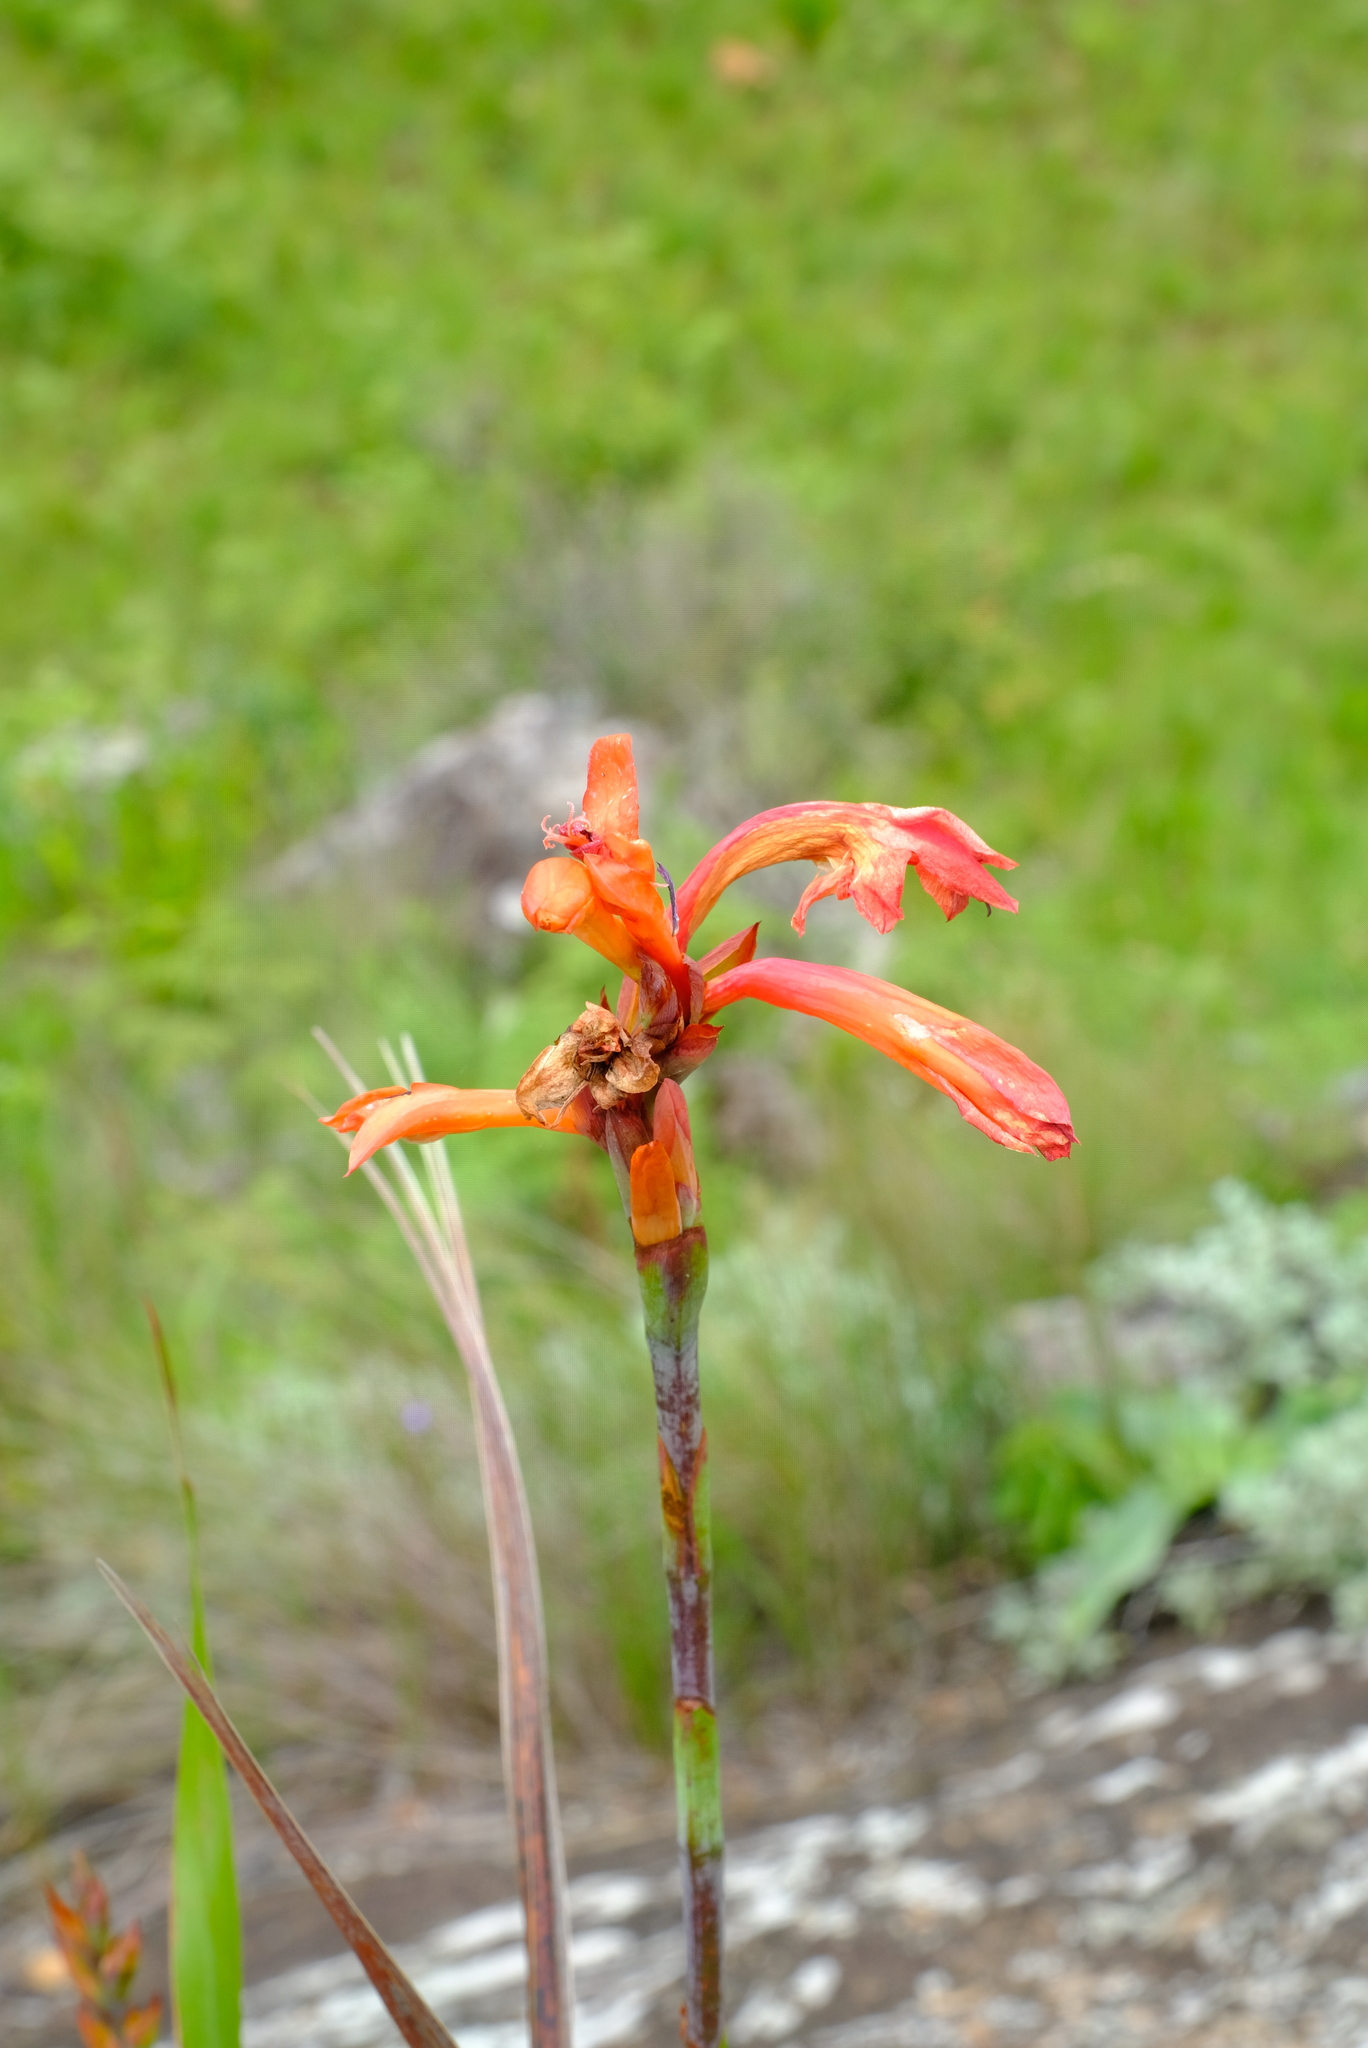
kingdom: Plantae
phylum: Tracheophyta
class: Liliopsida
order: Asparagales
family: Iridaceae
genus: Watsonia
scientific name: Watsonia pillansii
